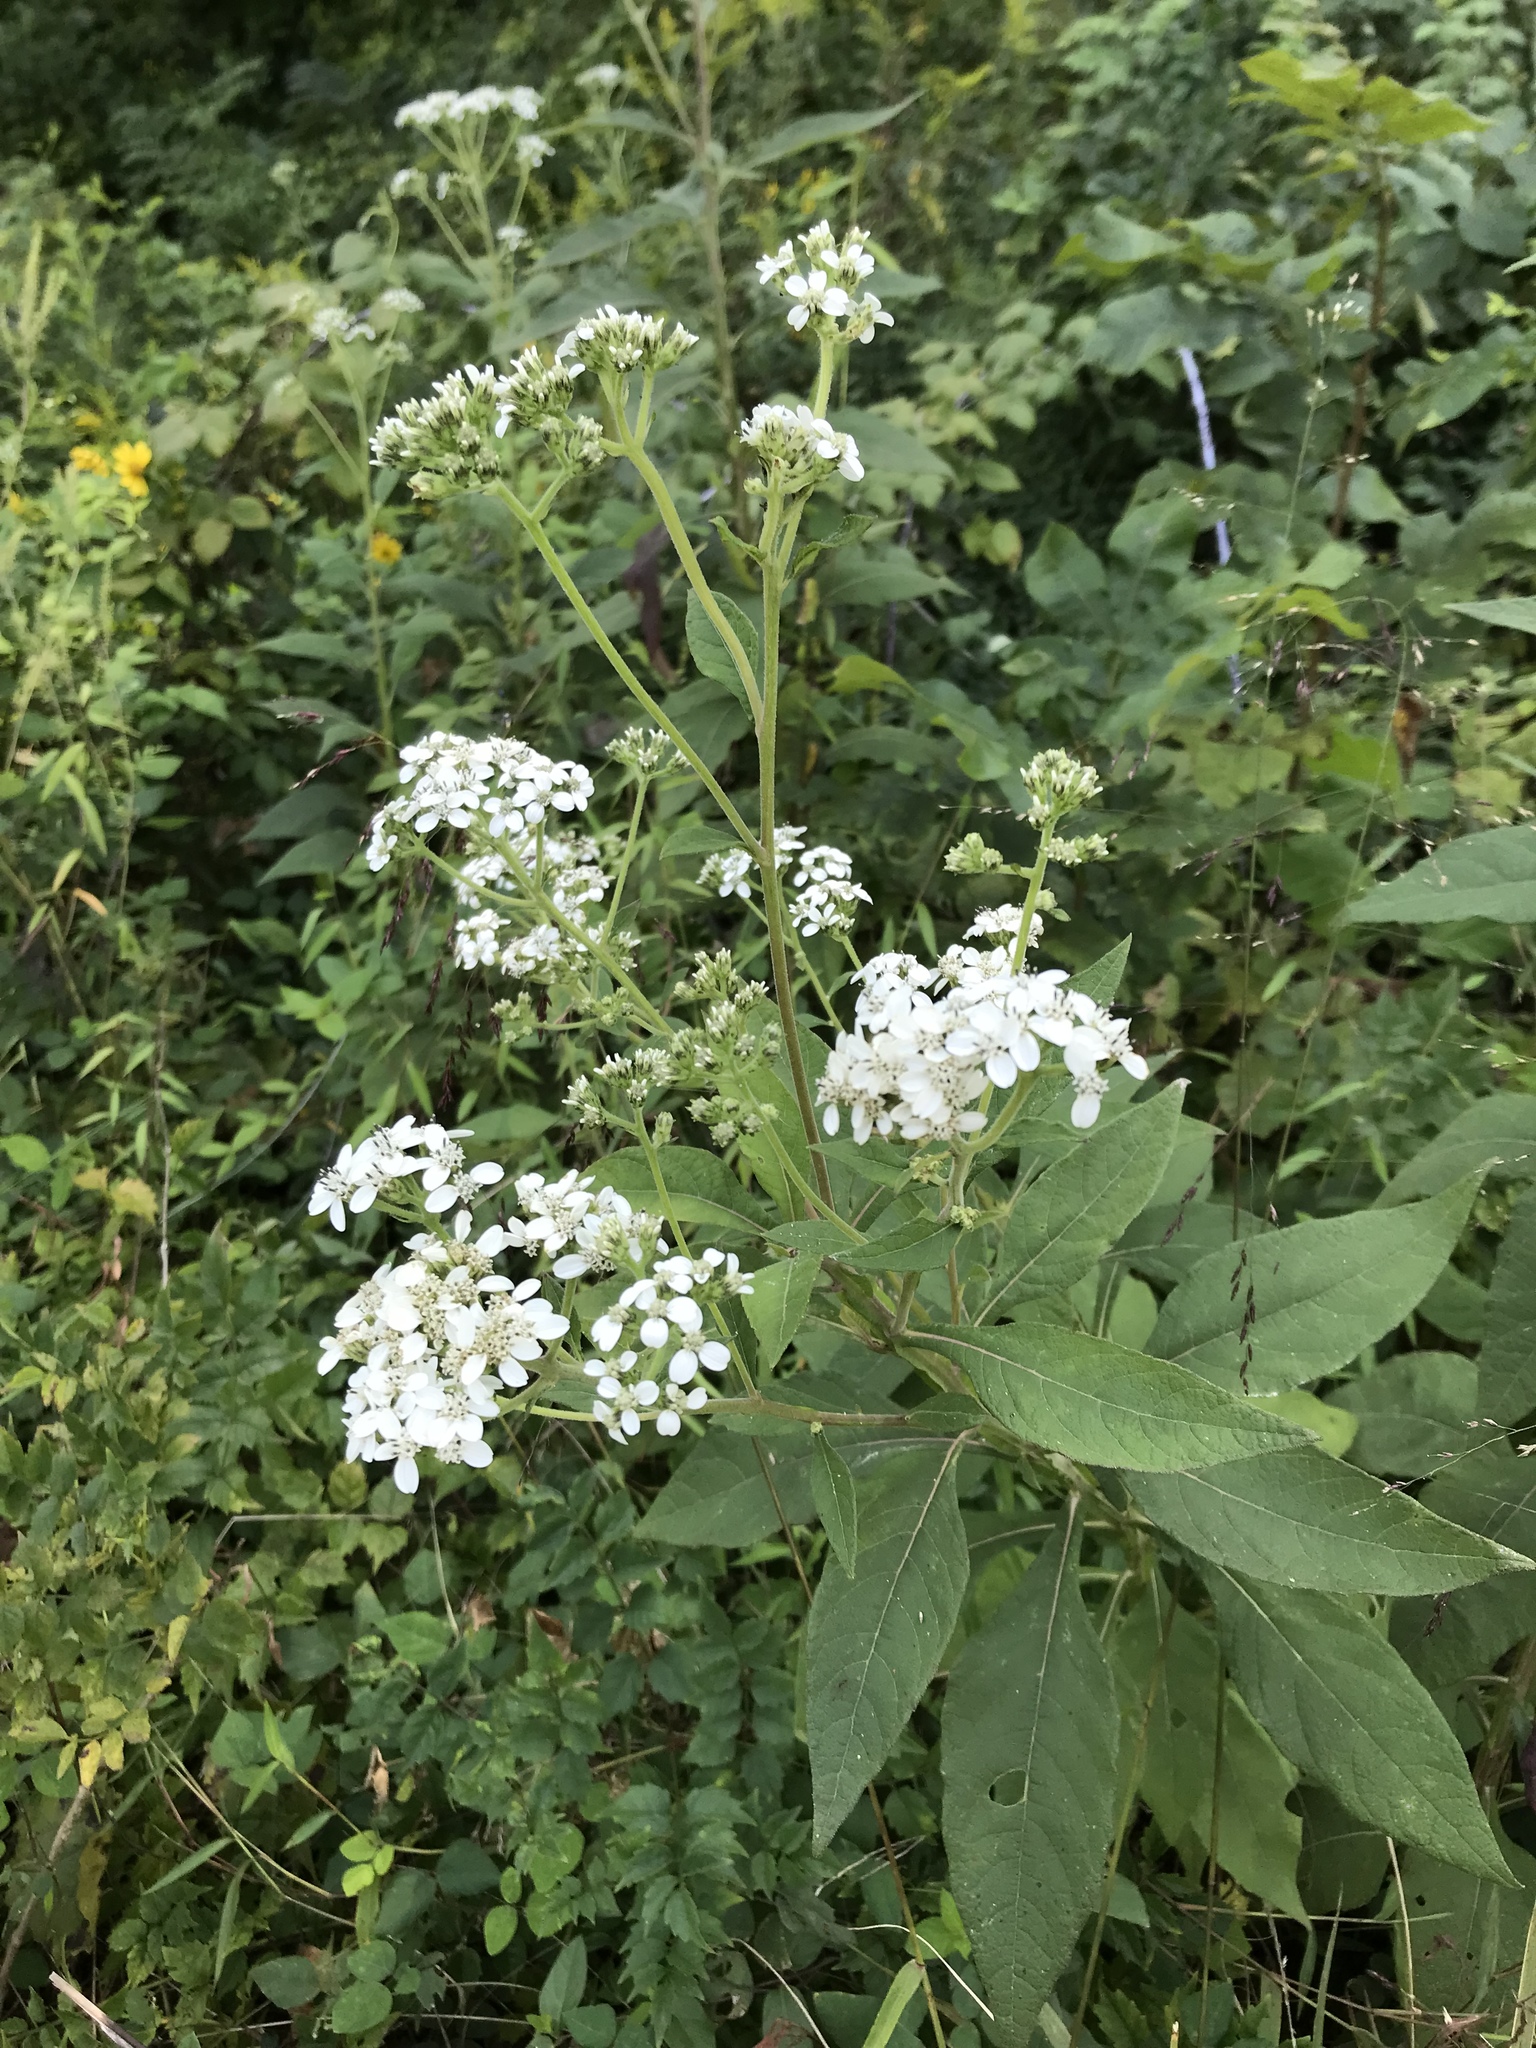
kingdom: Plantae
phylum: Tracheophyta
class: Magnoliopsida
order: Asterales
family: Asteraceae
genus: Verbesina
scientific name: Verbesina virginica
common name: Frostweed
